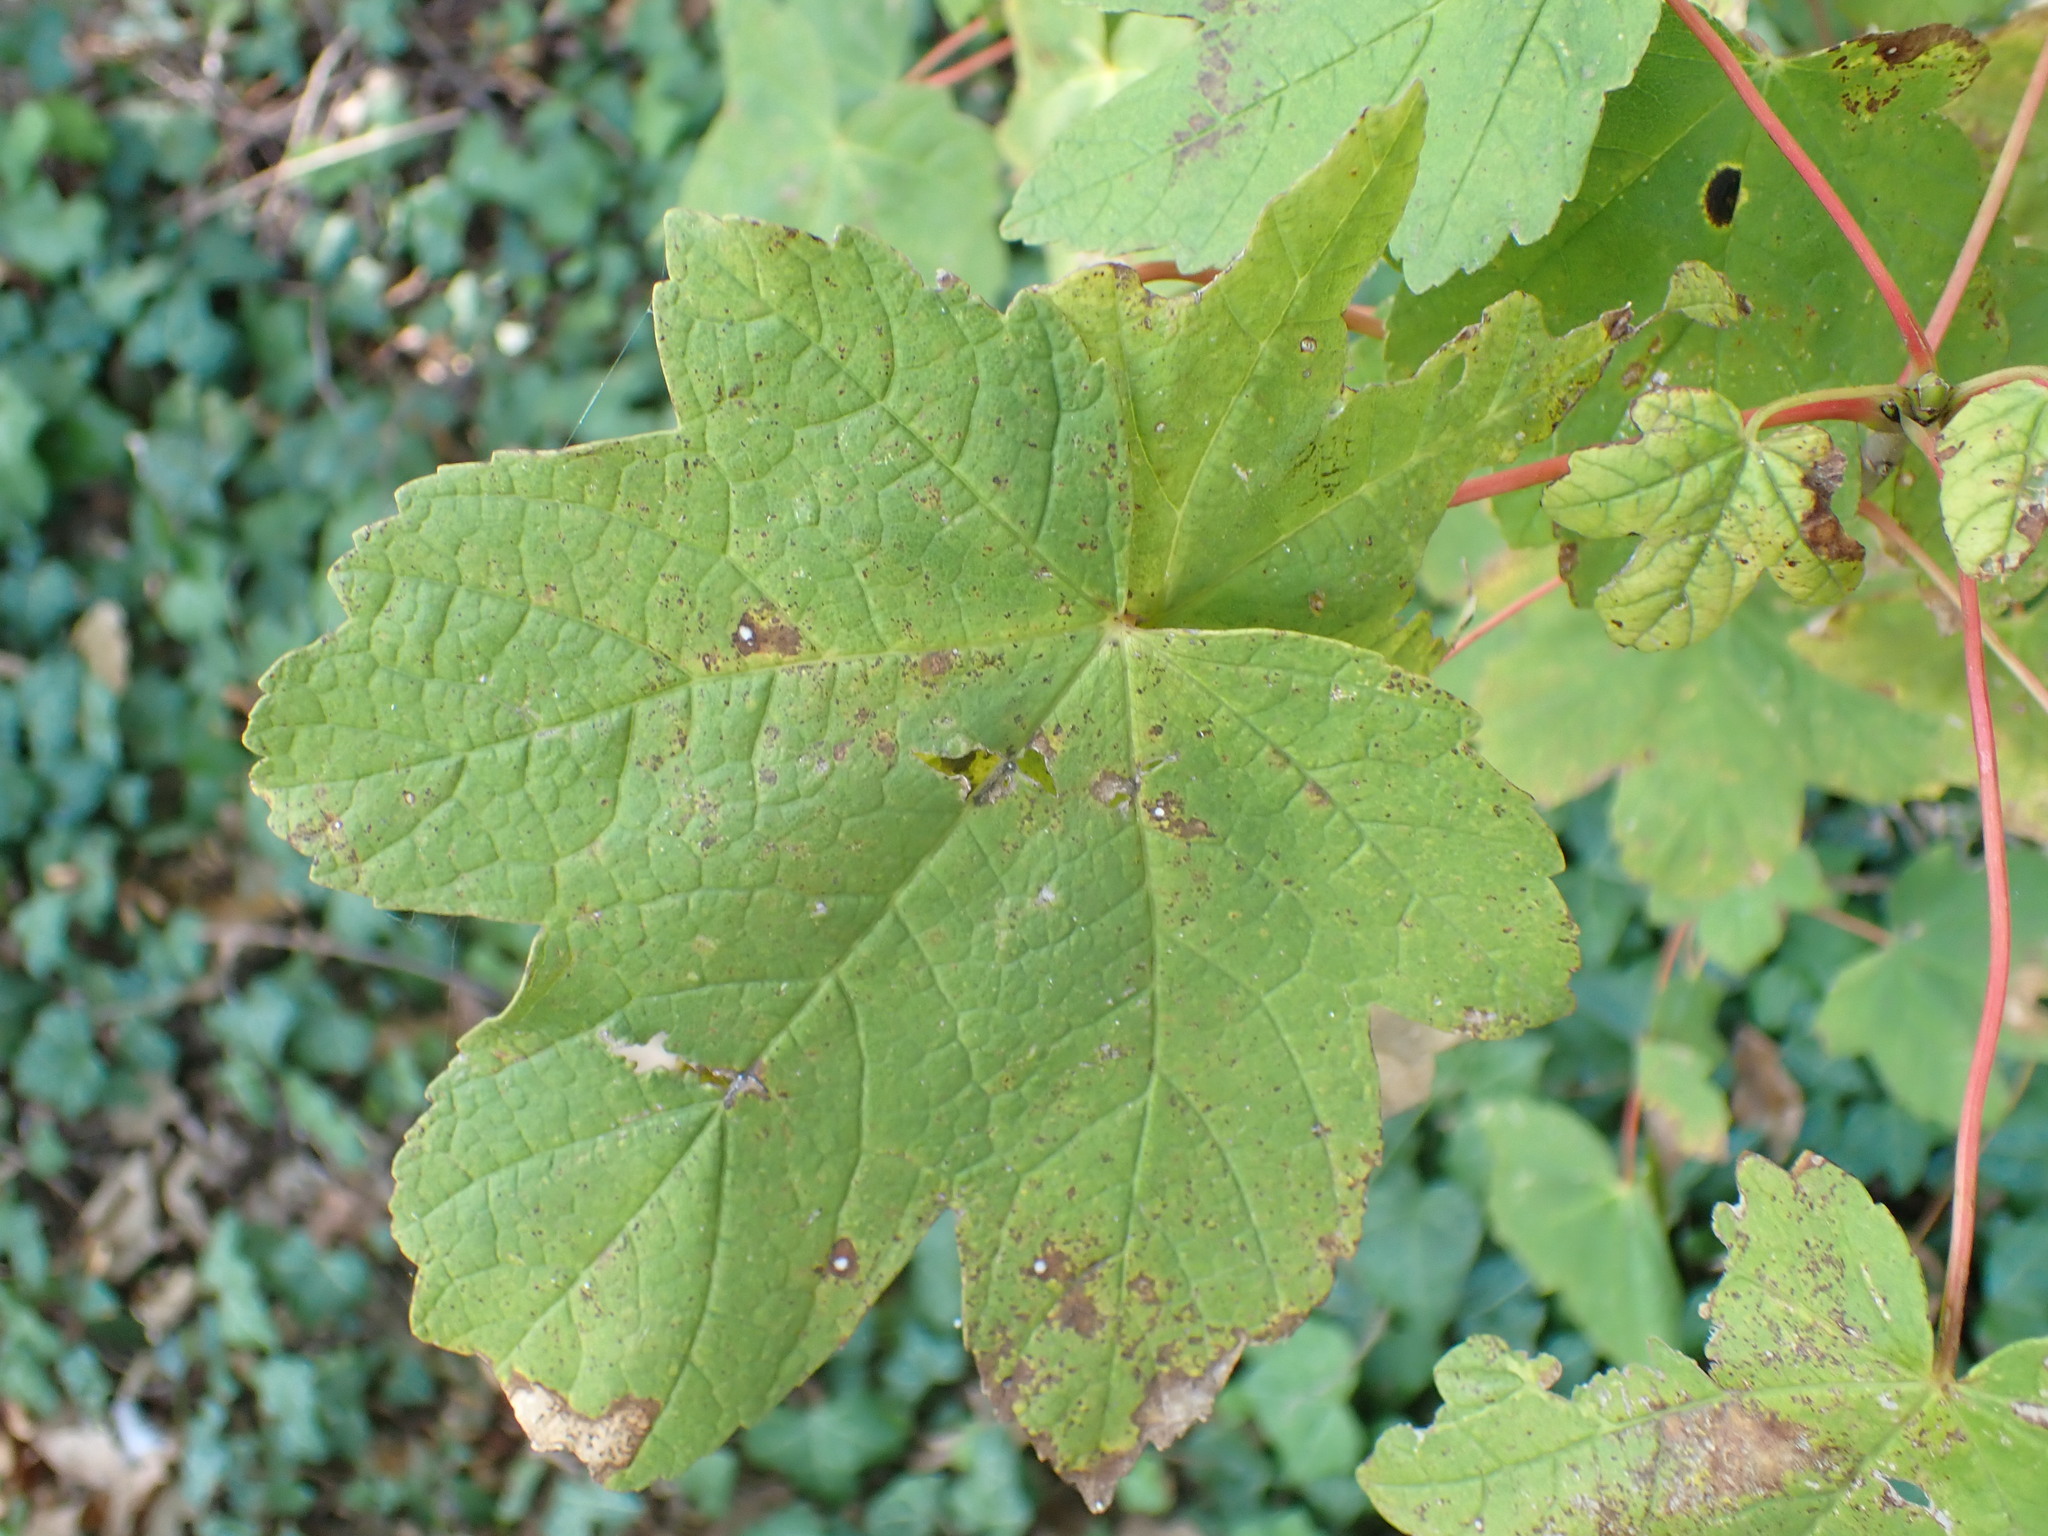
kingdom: Plantae
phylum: Tracheophyta
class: Magnoliopsida
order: Sapindales
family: Sapindaceae
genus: Acer
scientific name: Acer pseudoplatanus
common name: Sycamore
